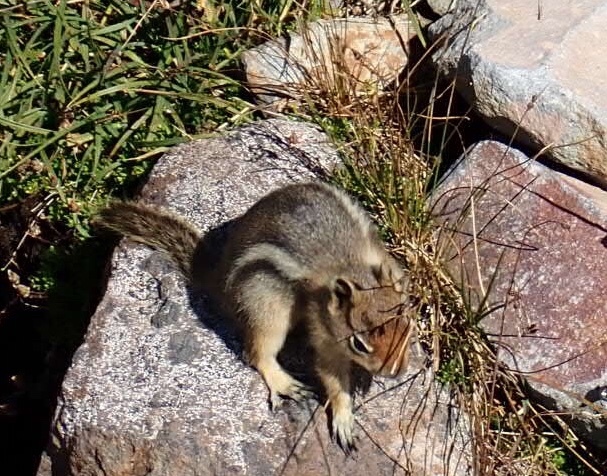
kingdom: Animalia
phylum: Chordata
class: Mammalia
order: Rodentia
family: Sciuridae
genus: Callospermophilus
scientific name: Callospermophilus saturatus
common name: Cascade golden-mantled ground squirrel
